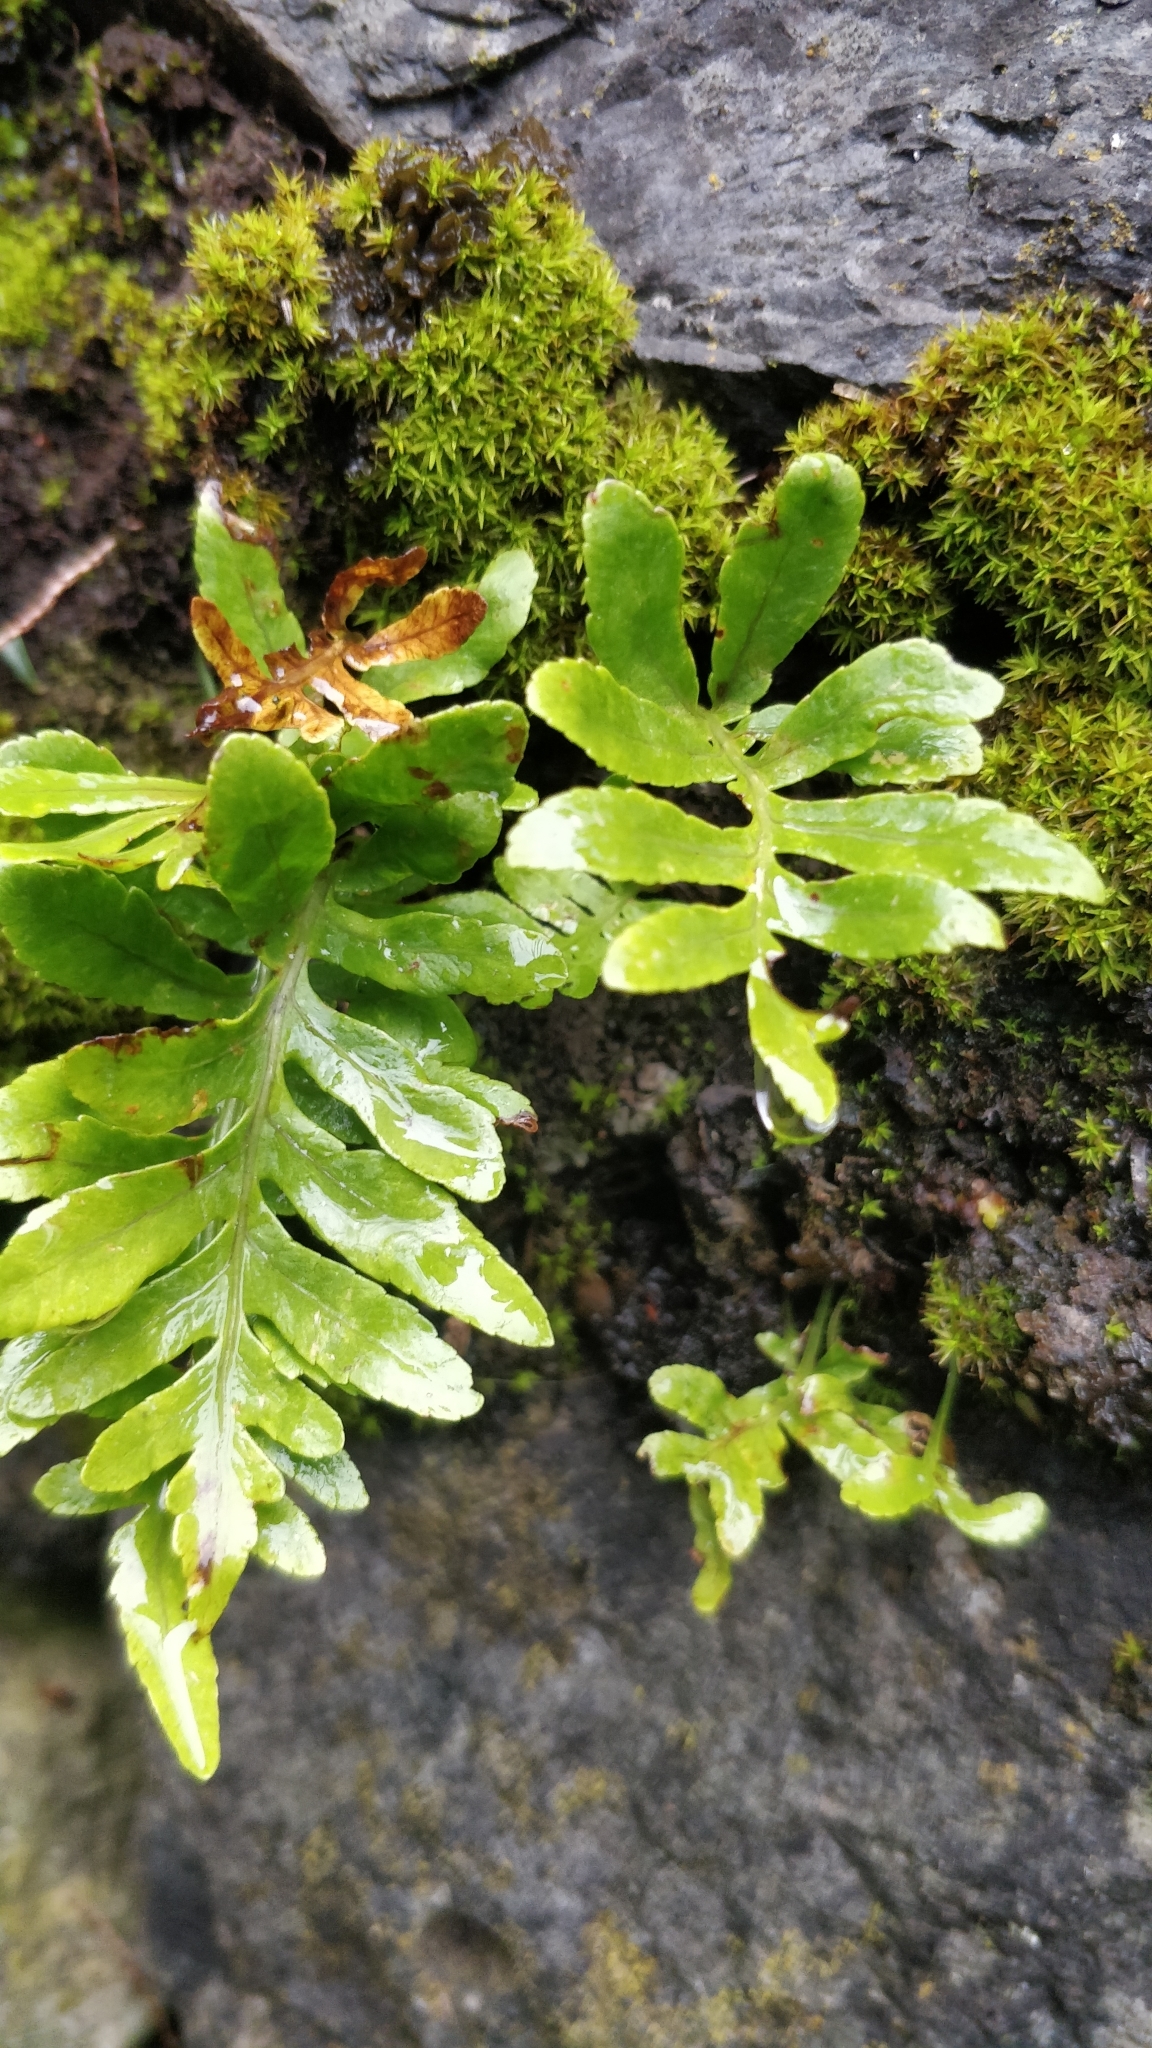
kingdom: Plantae
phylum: Tracheophyta
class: Polypodiopsida
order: Polypodiales
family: Polypodiaceae
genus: Polypodium
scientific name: Polypodium macaronesicum
